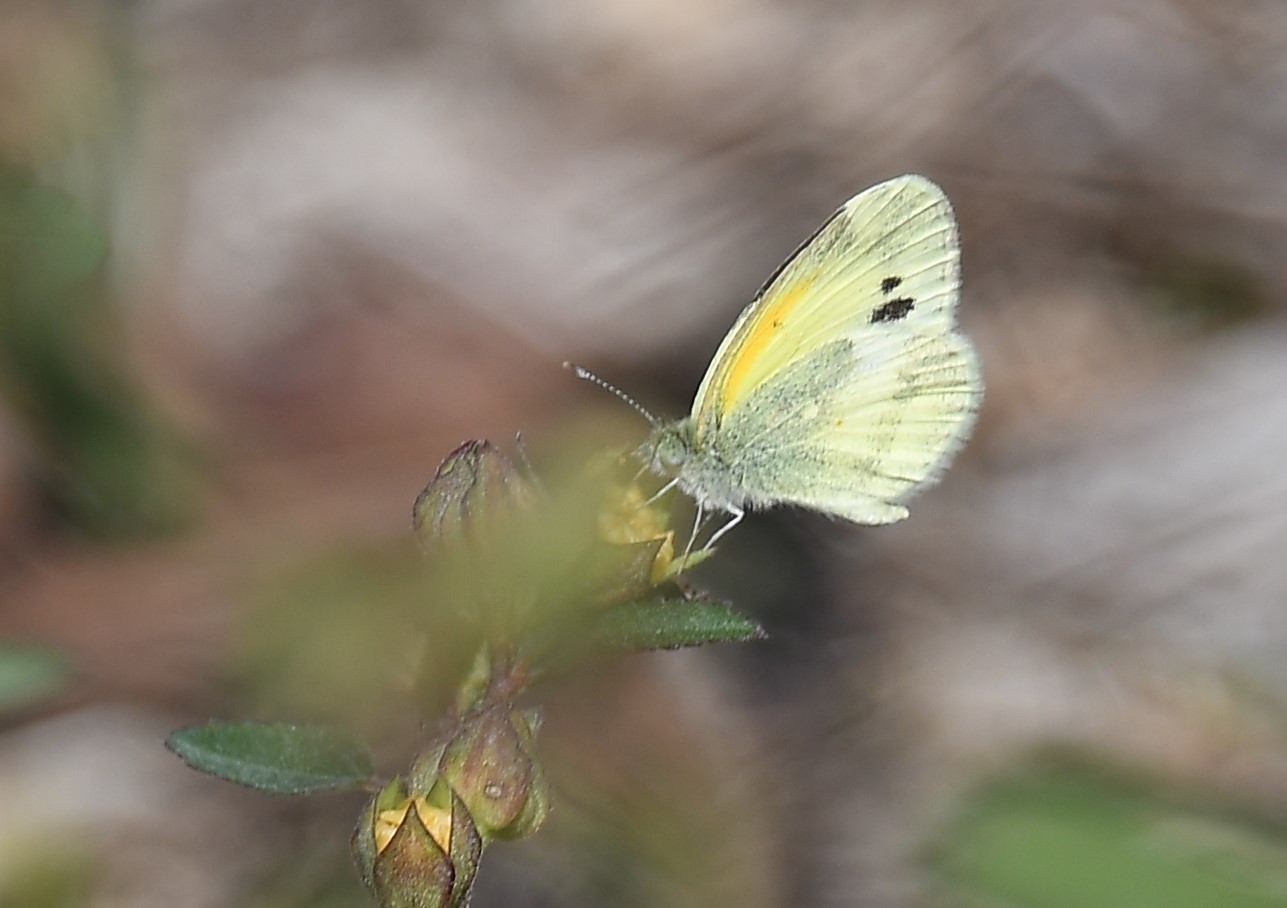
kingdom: Animalia
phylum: Arthropoda
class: Insecta
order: Lepidoptera
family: Pieridae
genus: Nathalis
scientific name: Nathalis iole
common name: Dainty sulphur
